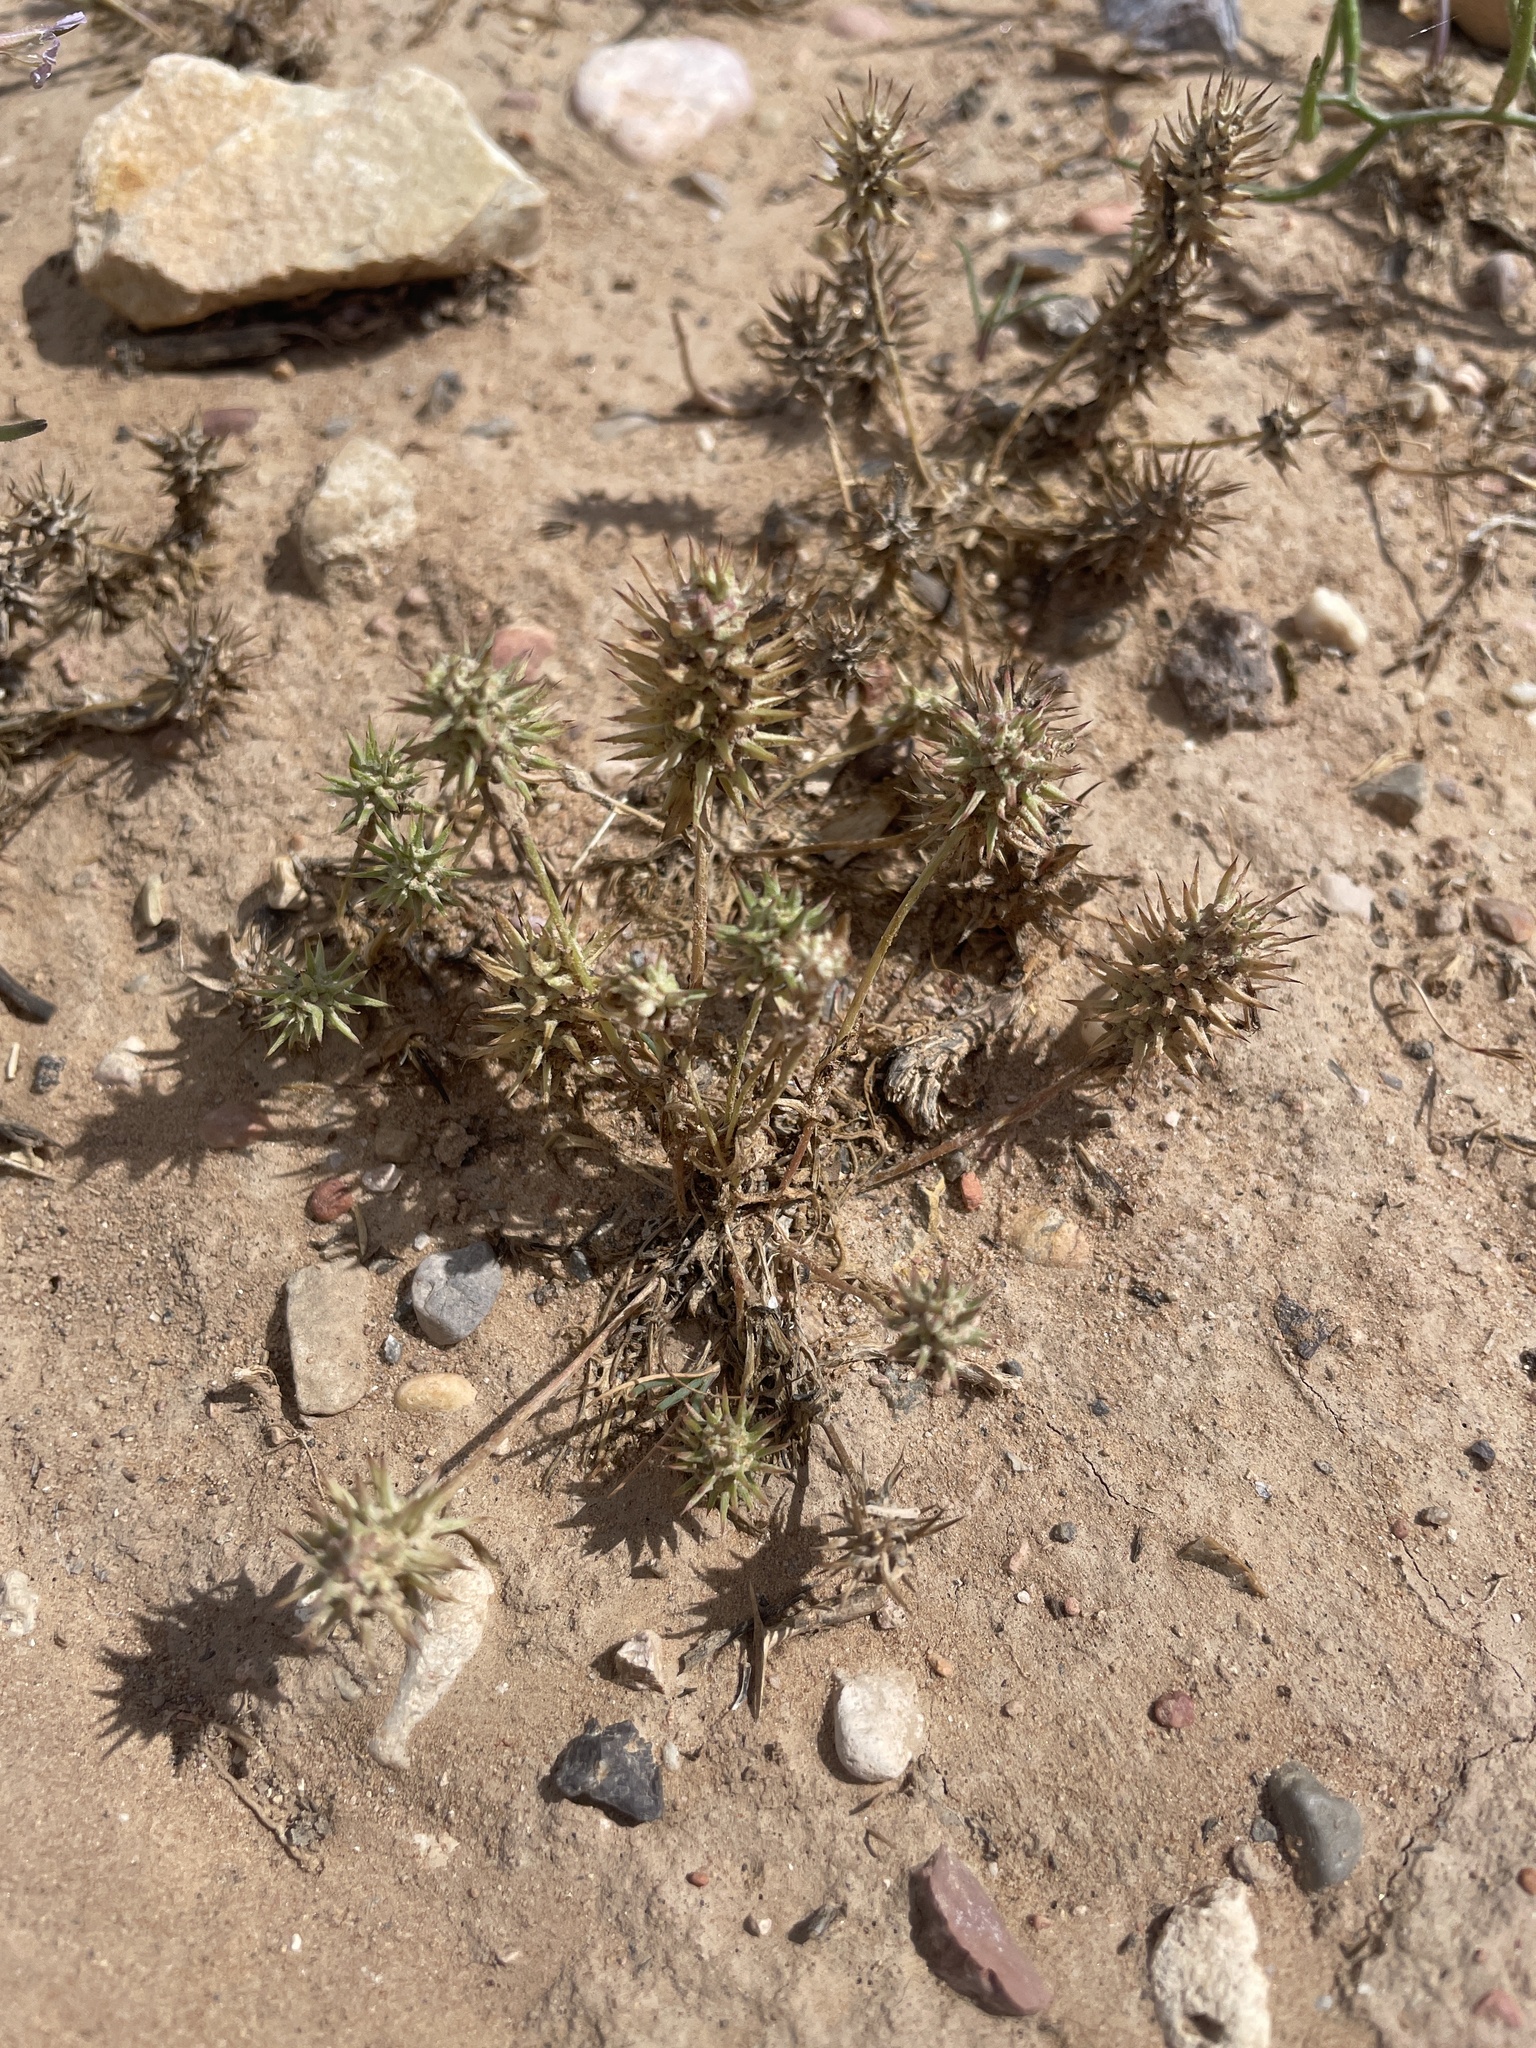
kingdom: Plantae
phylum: Tracheophyta
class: Magnoliopsida
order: Ranunculales
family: Ranunculaceae
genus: Ceratocephala
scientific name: Ceratocephala orthoceras
